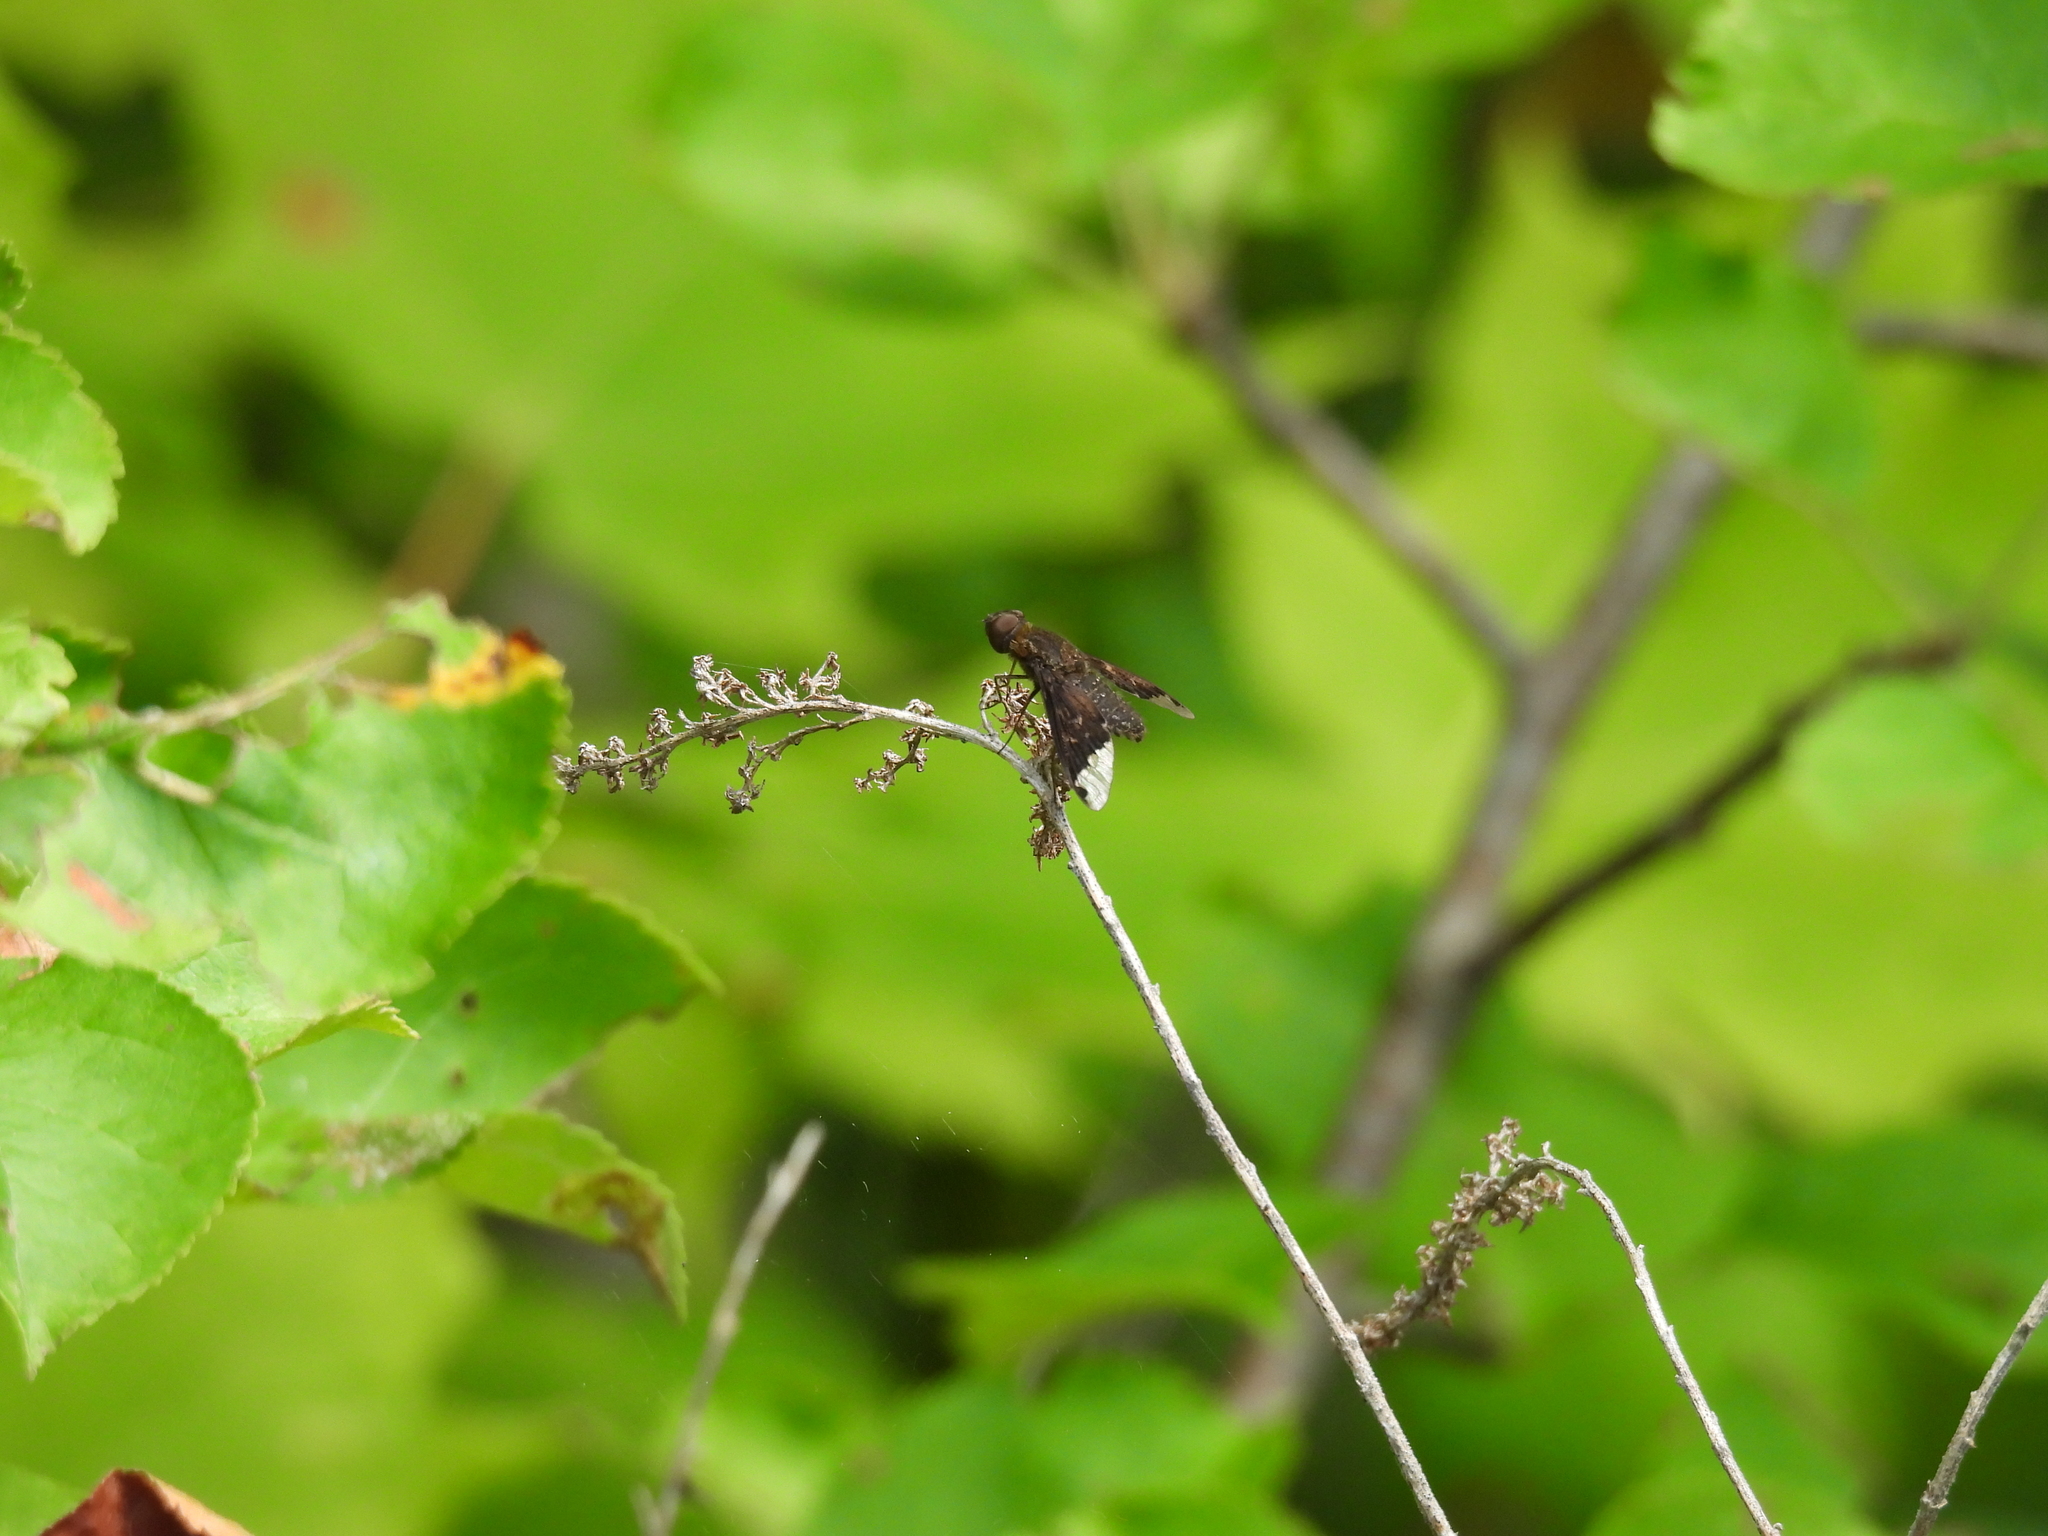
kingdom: Animalia
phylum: Arthropoda
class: Insecta
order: Diptera
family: Bombyliidae
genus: Hemipenthes
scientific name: Hemipenthes sinuosus
